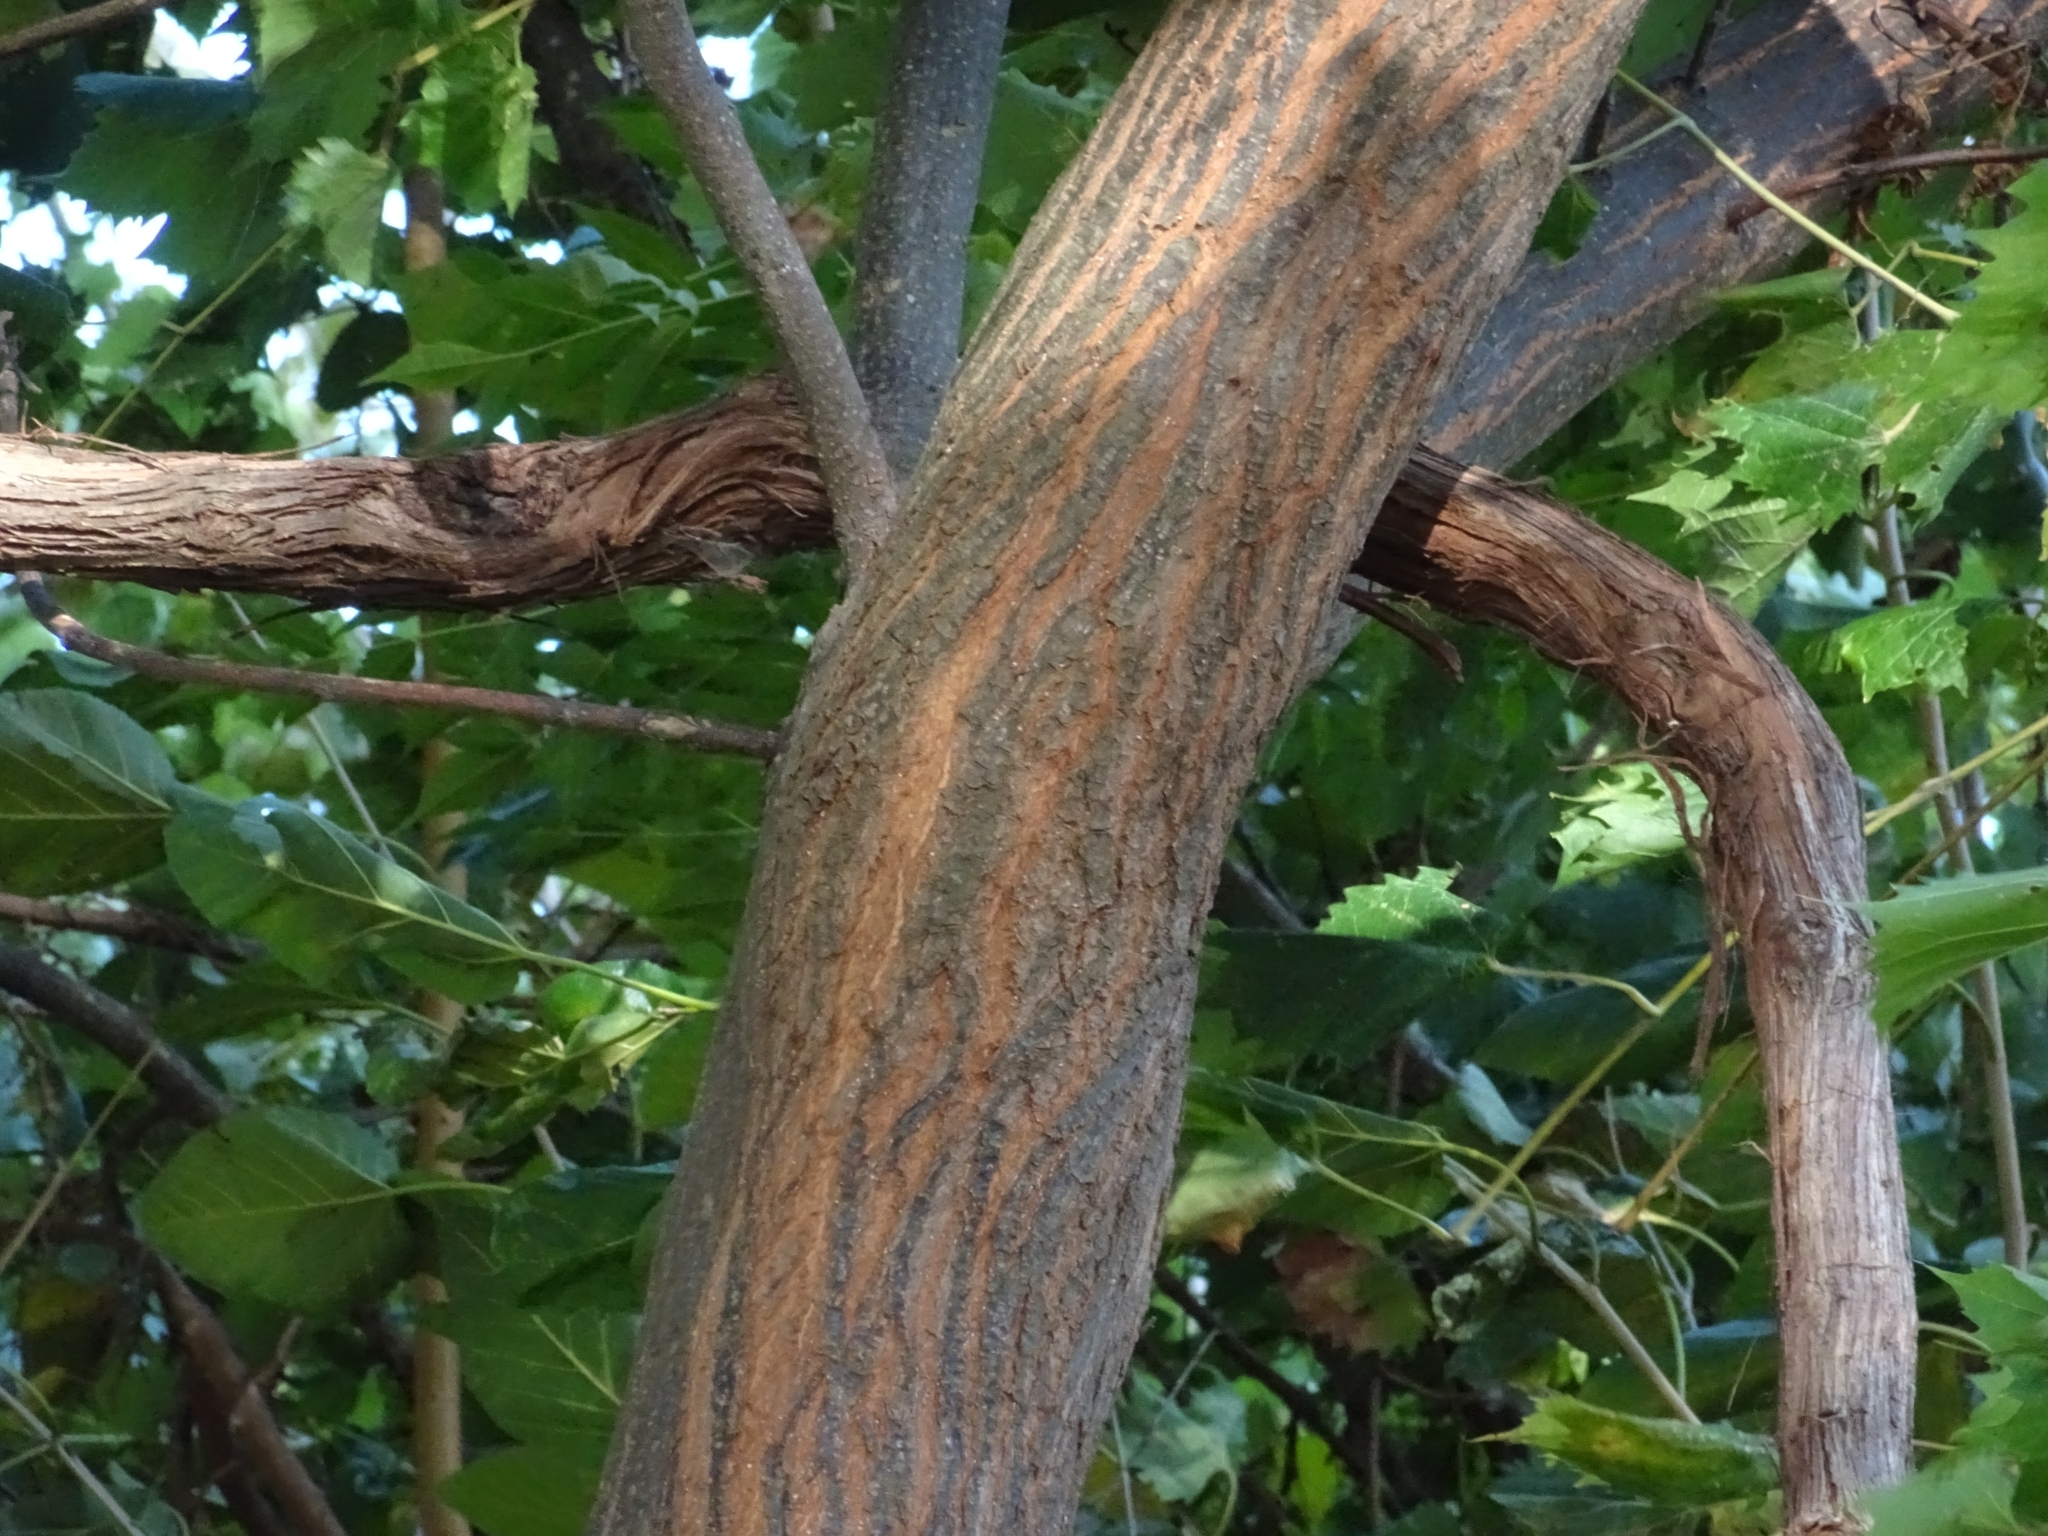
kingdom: Plantae
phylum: Tracheophyta
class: Magnoliopsida
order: Sapindales
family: Meliaceae
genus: Melia
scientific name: Melia azedarach
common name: Chinaberrytree
